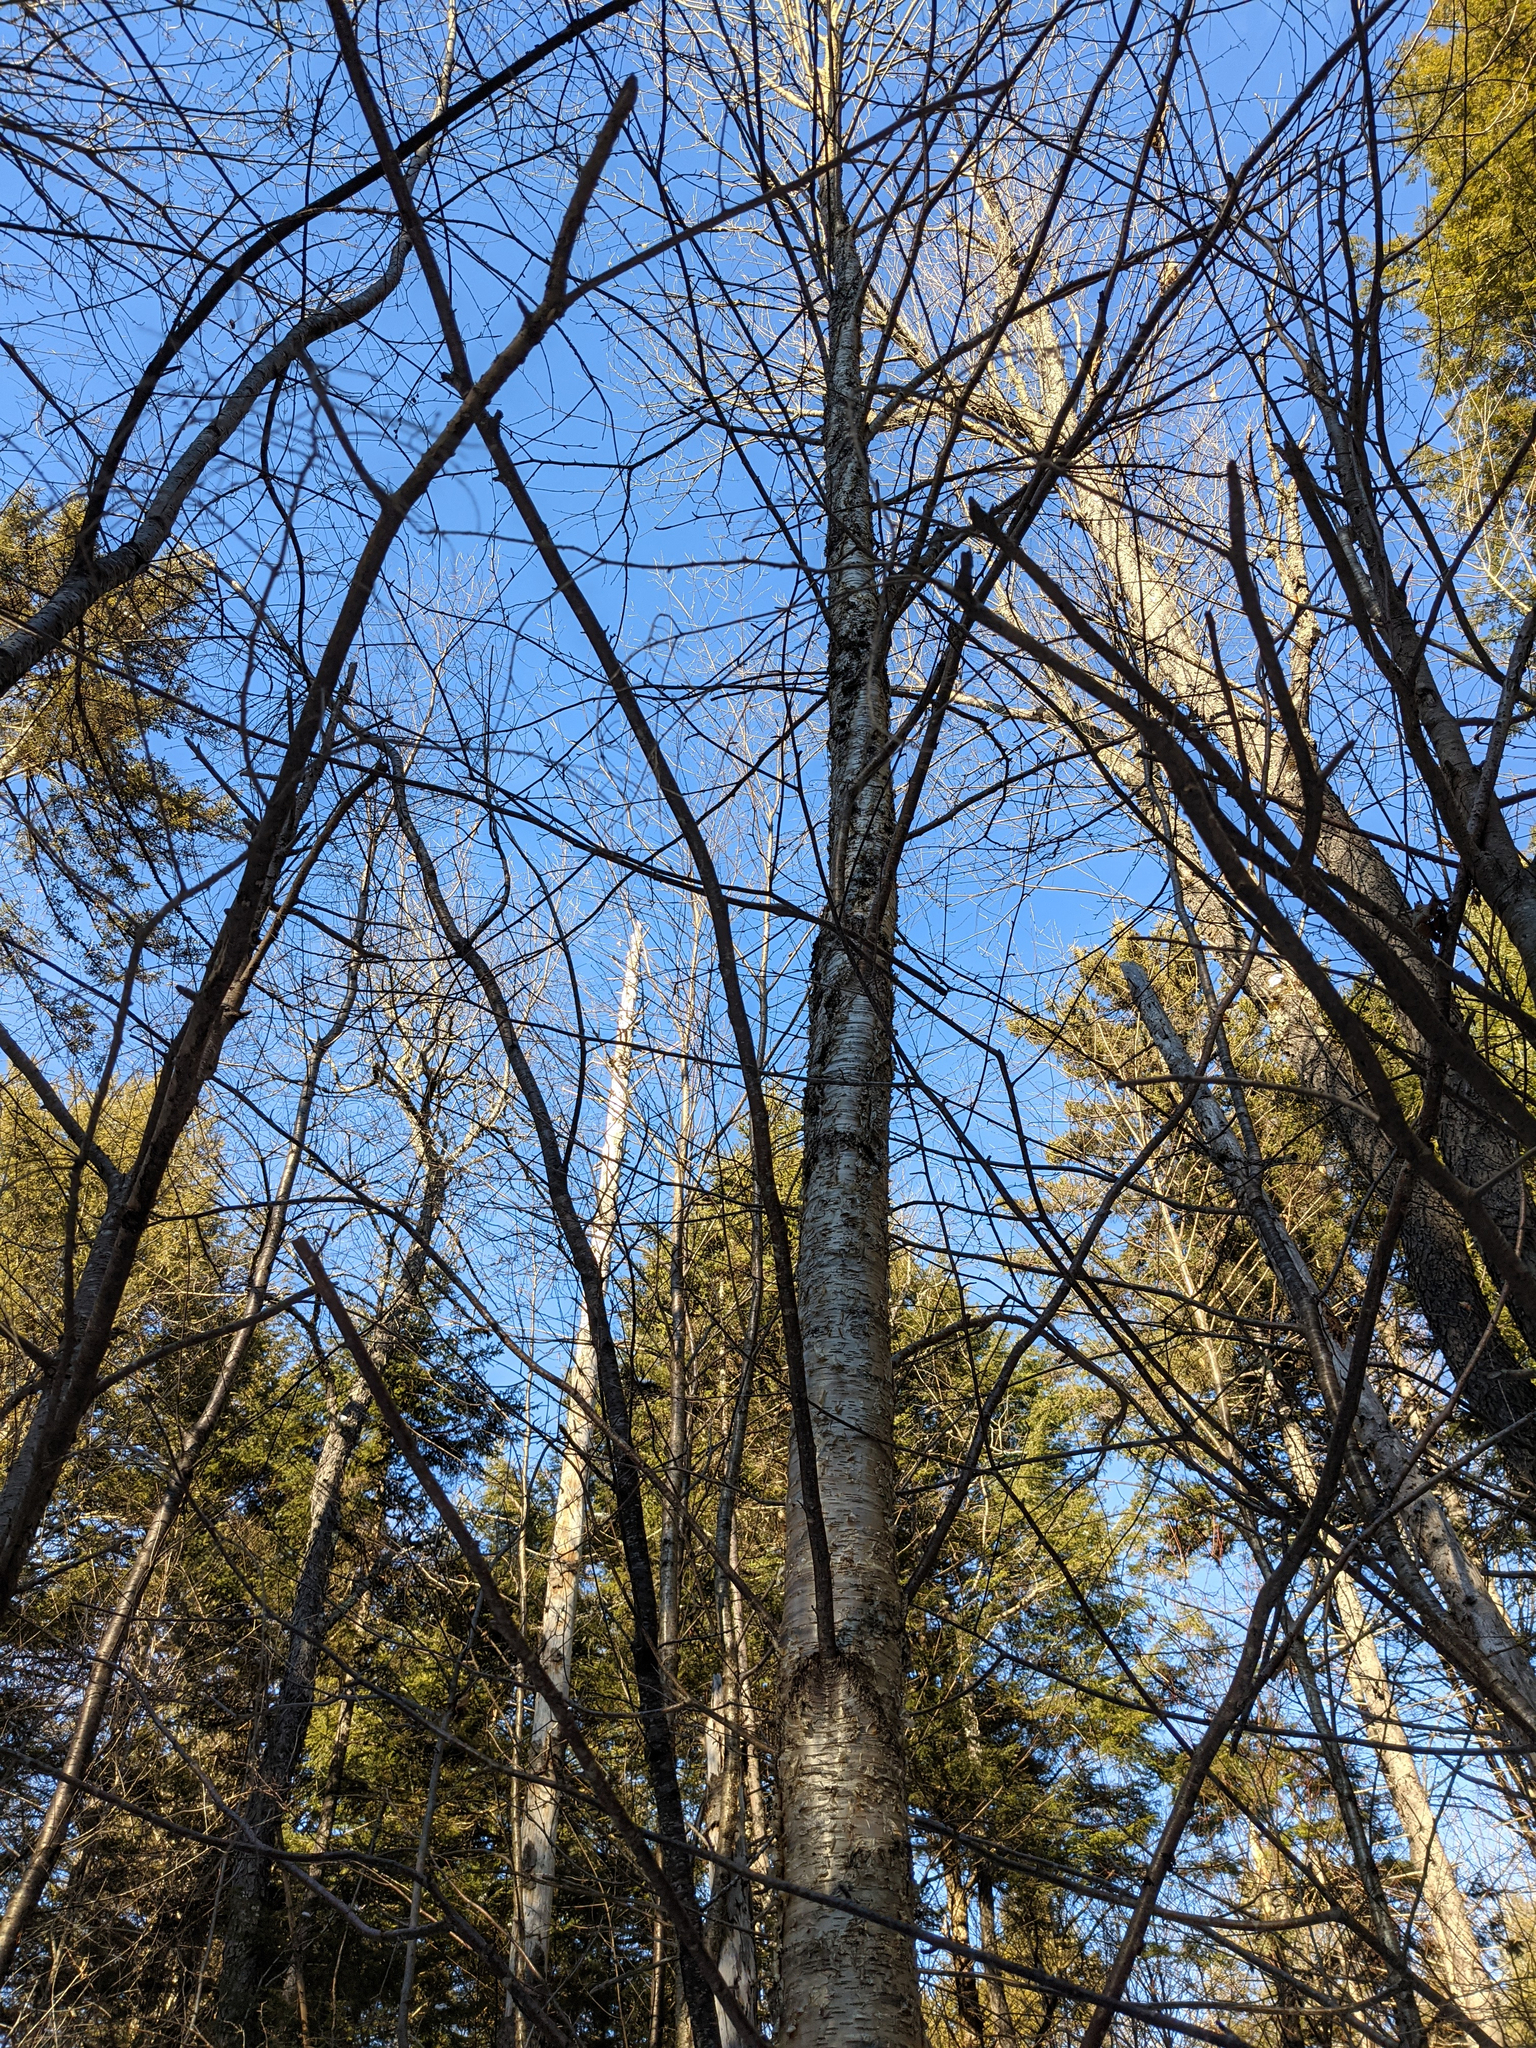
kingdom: Plantae
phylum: Tracheophyta
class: Magnoliopsida
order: Fagales
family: Betulaceae
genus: Betula
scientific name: Betula alleghaniensis
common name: Yellow birch
